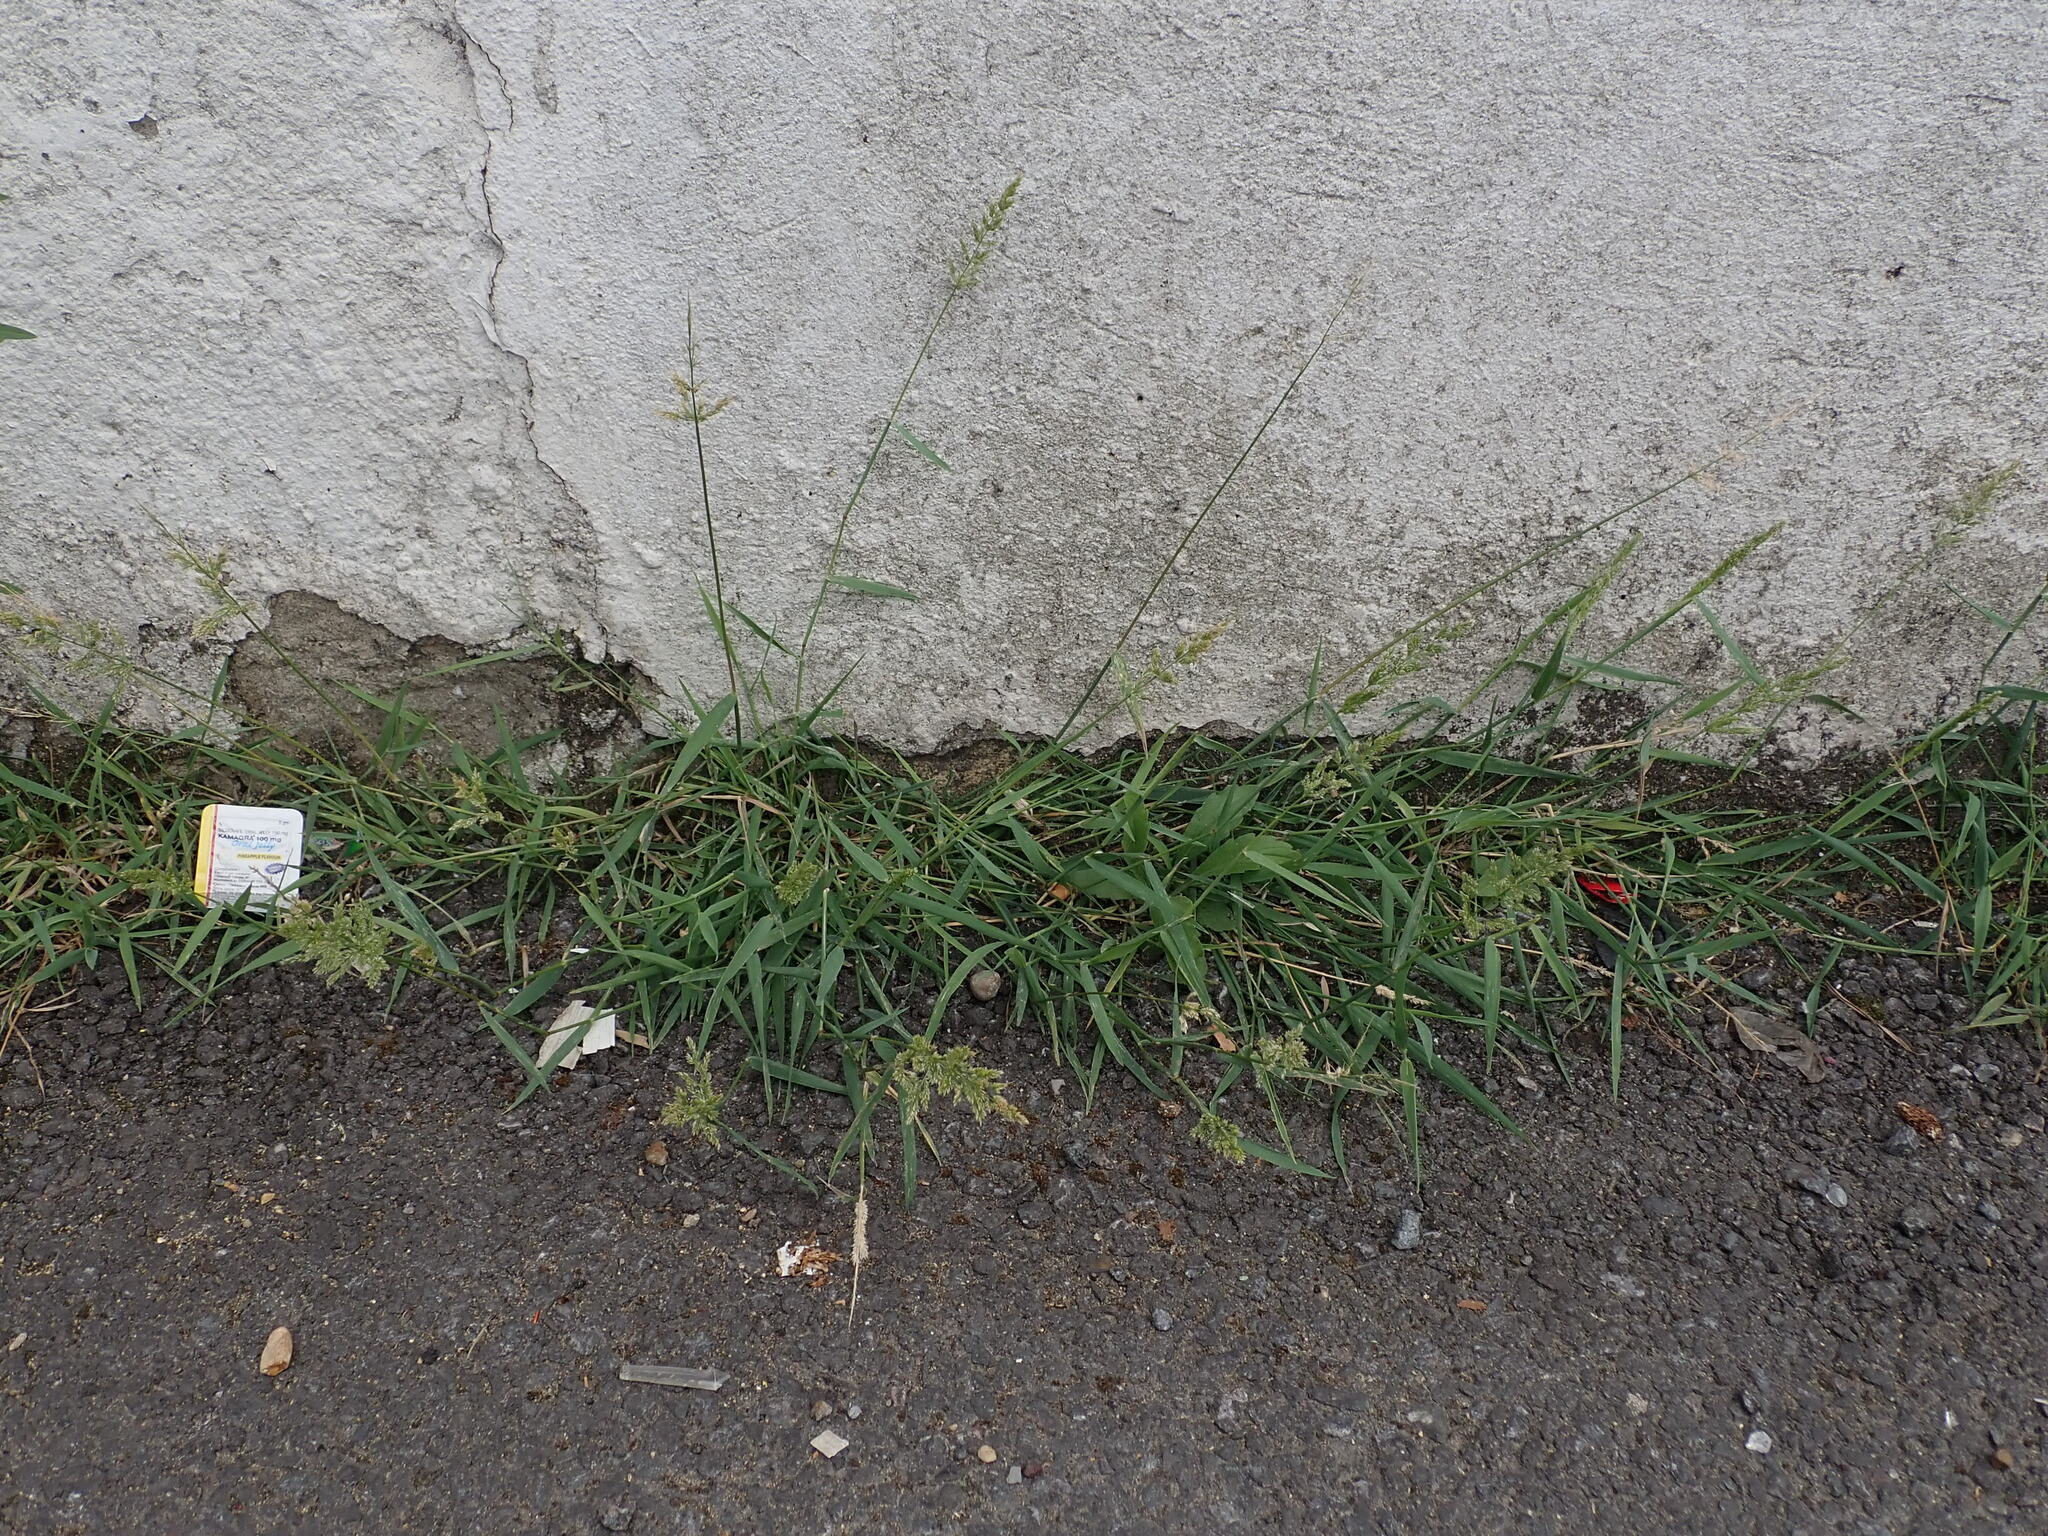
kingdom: Plantae
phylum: Tracheophyta
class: Liliopsida
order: Poales
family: Poaceae
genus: Polypogon
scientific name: Polypogon viridis
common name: Water bent
